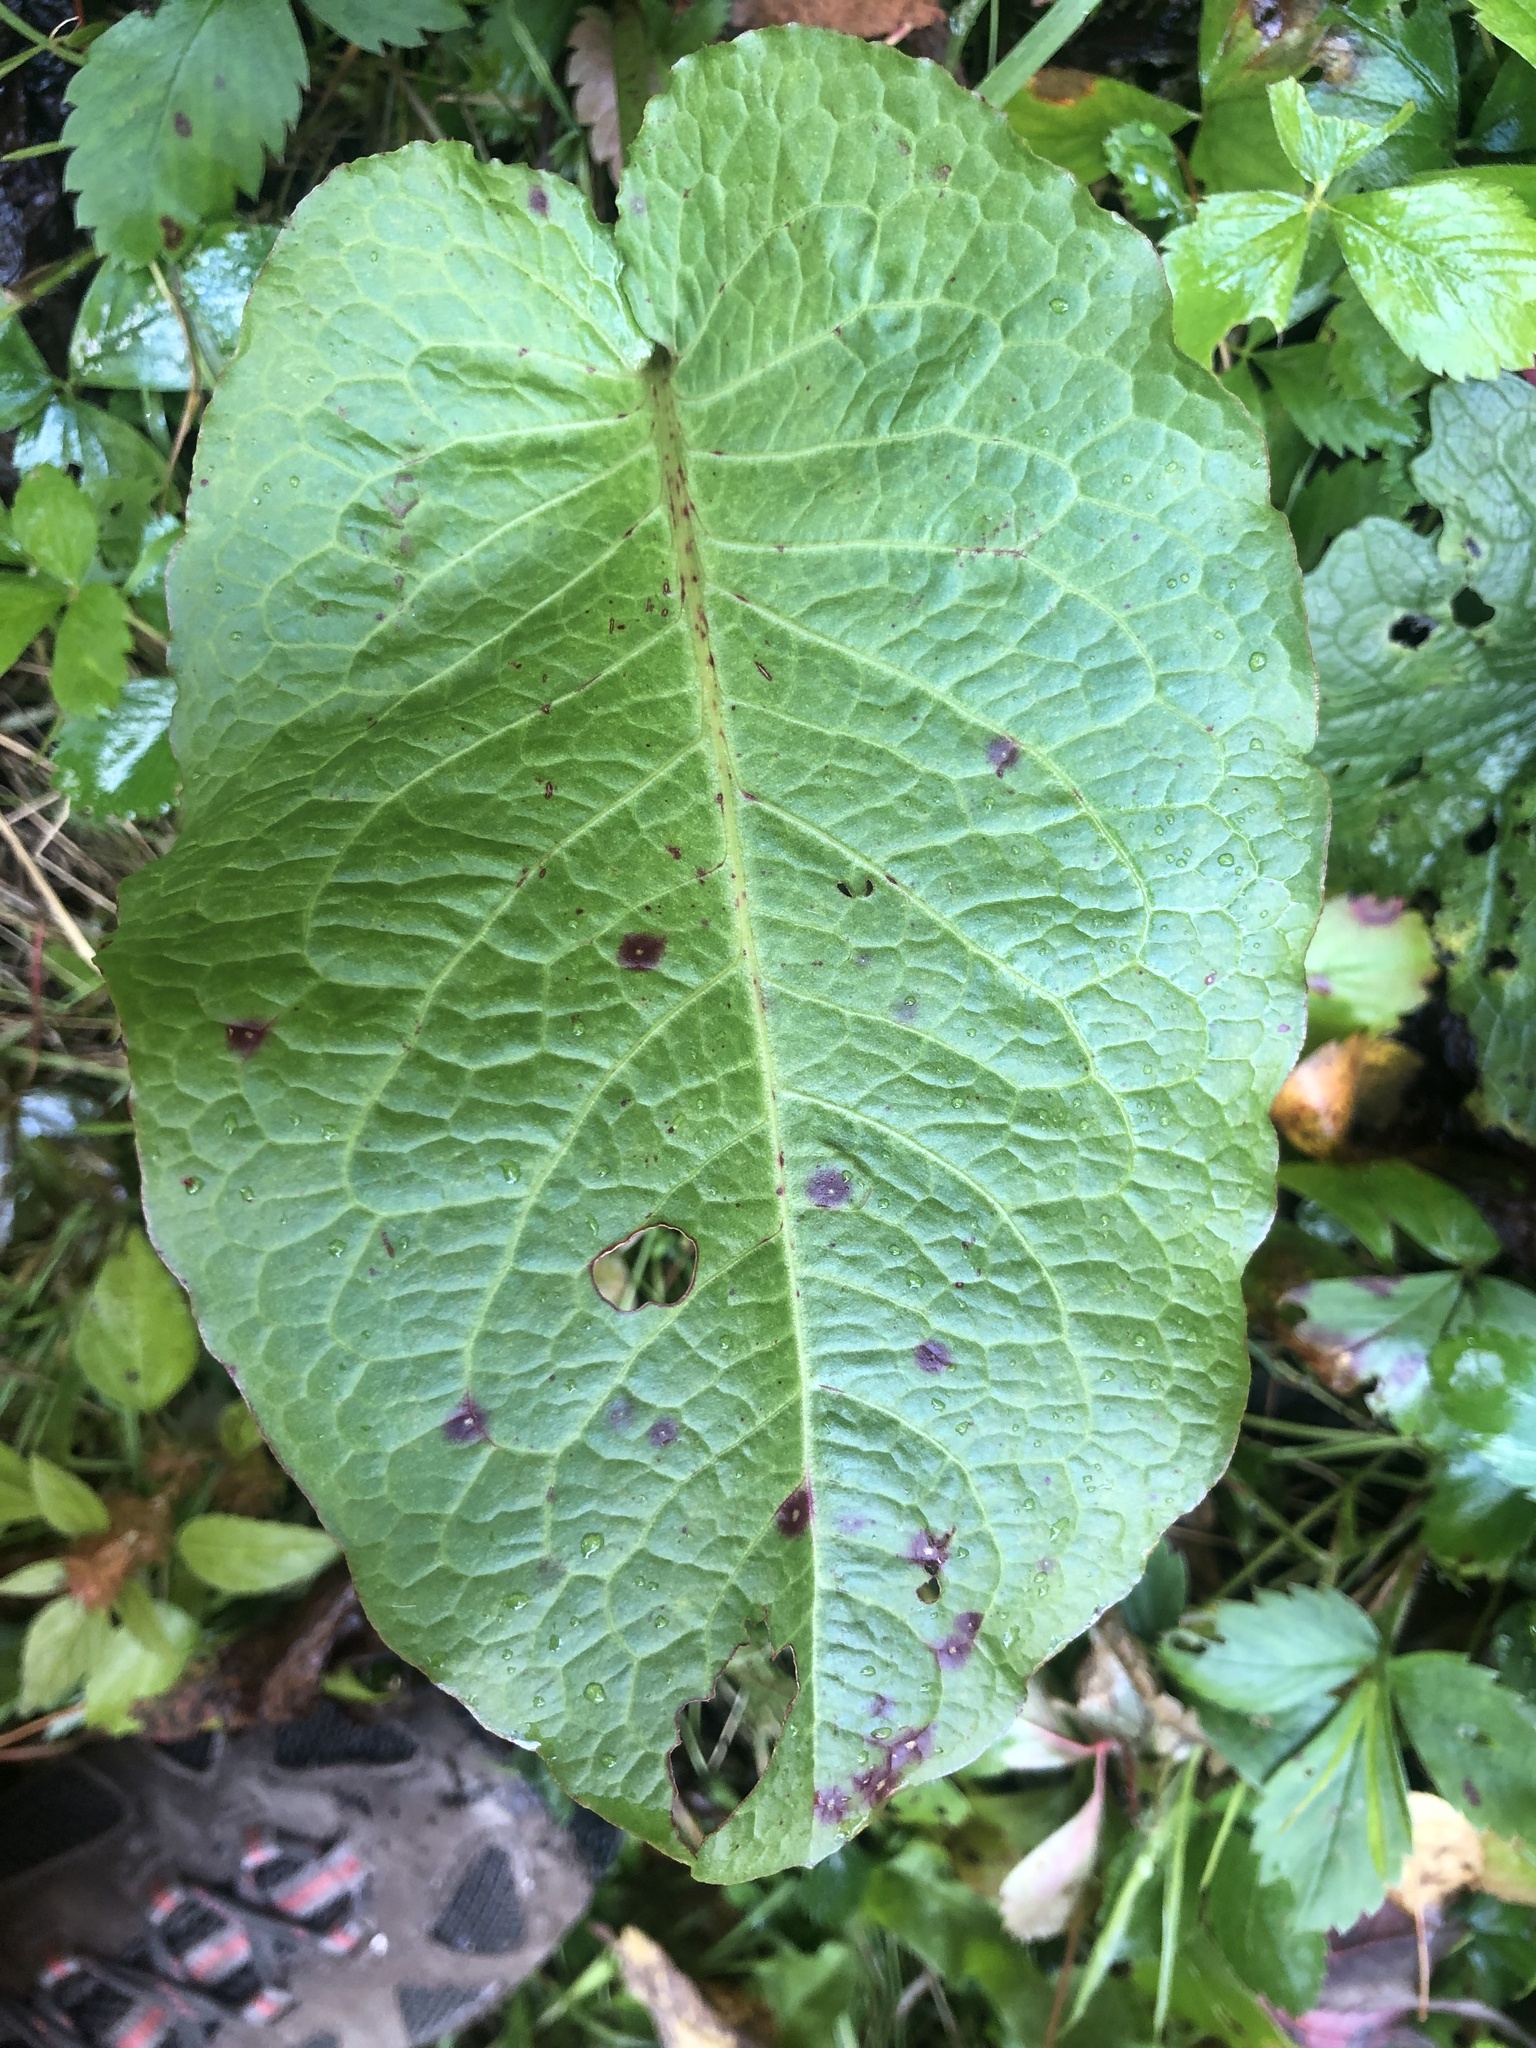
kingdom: Fungi
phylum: Ascomycota
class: Dothideomycetes
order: Mycosphaerellales
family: Mycosphaerellaceae
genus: Ramularia
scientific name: Ramularia rubella
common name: Red dock spot
